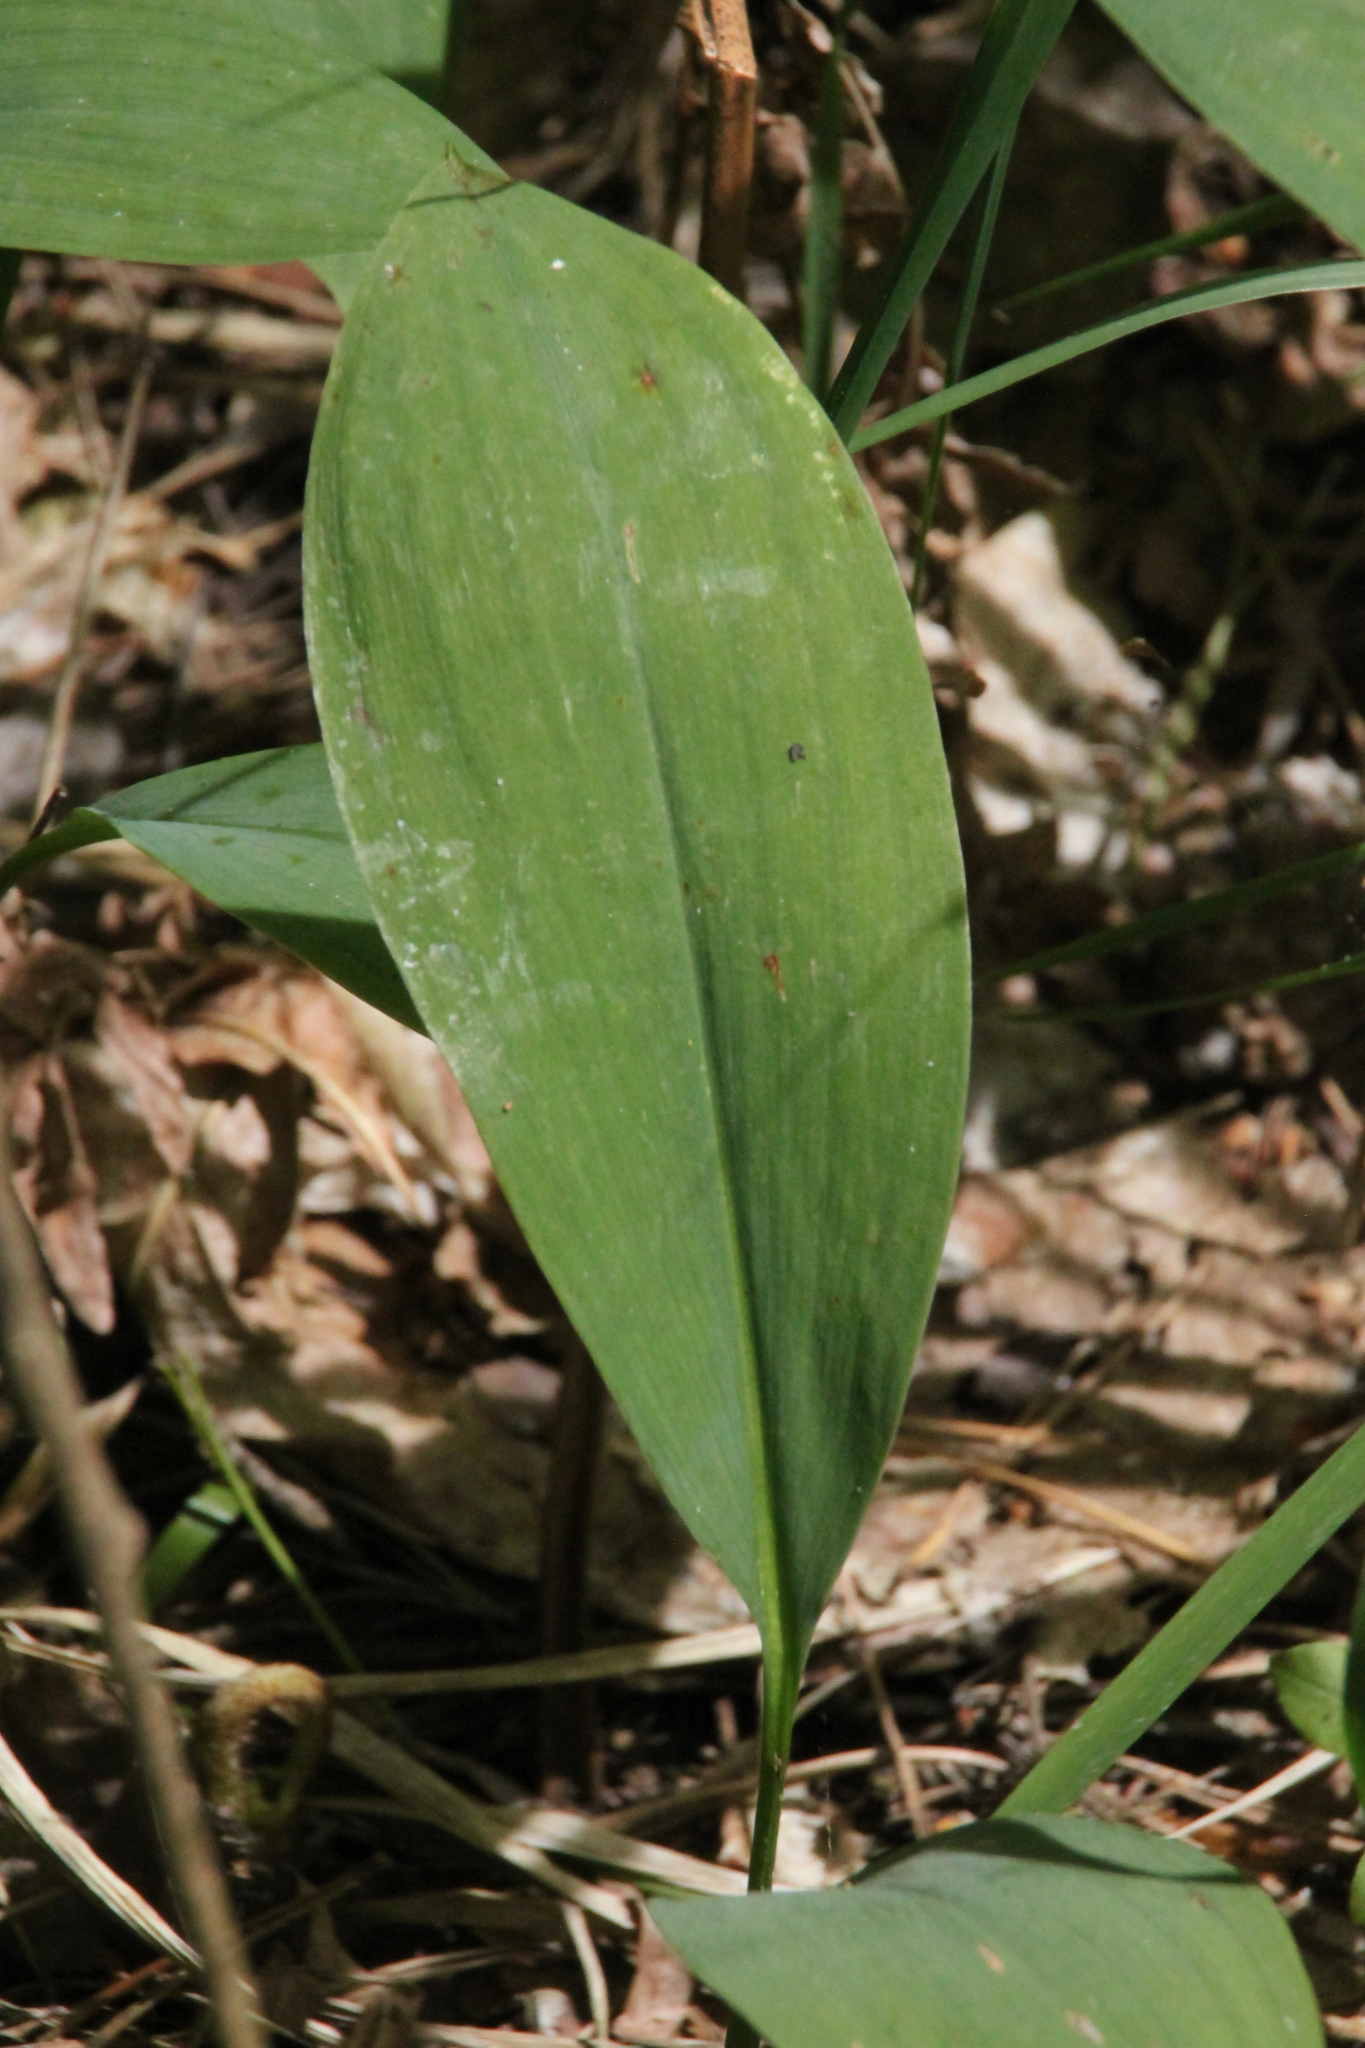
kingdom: Plantae
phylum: Tracheophyta
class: Liliopsida
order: Asparagales
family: Asparagaceae
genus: Convallaria
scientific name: Convallaria majalis
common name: Lily-of-the-valley
